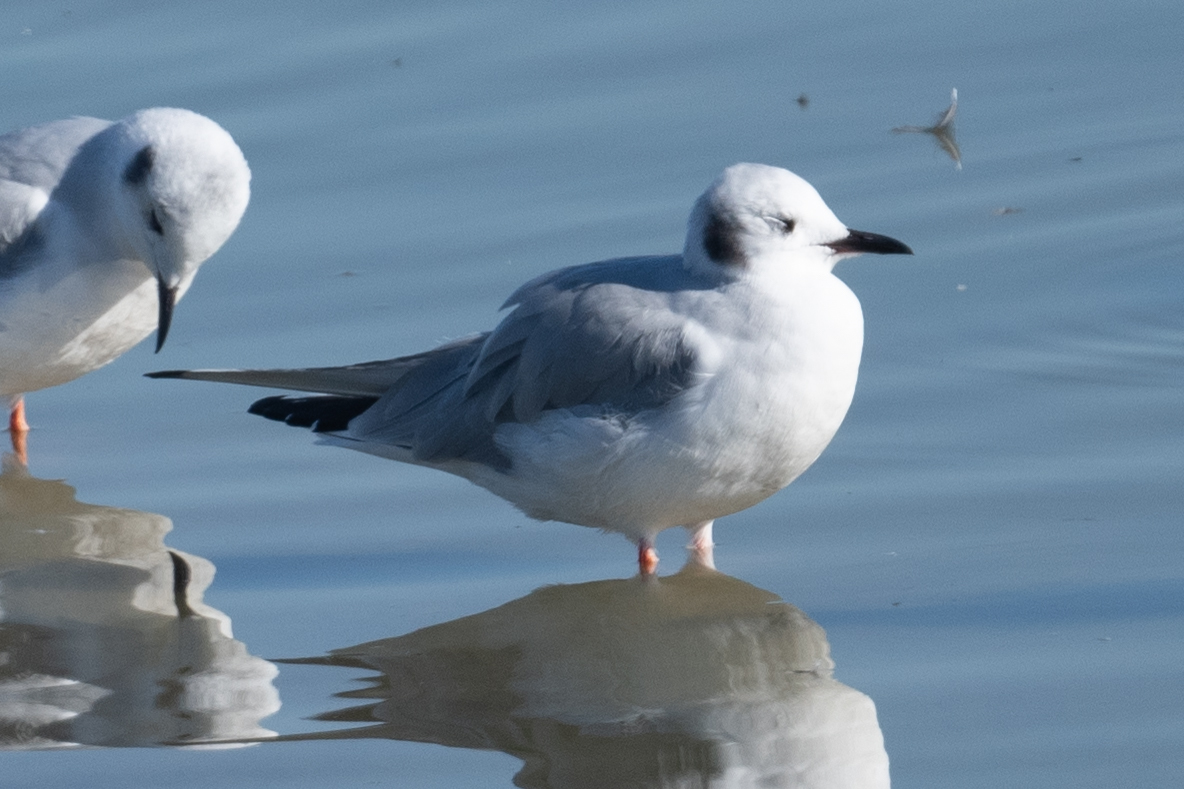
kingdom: Animalia
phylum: Chordata
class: Aves
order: Charadriiformes
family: Laridae
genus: Chroicocephalus
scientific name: Chroicocephalus philadelphia
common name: Bonaparte's gull
